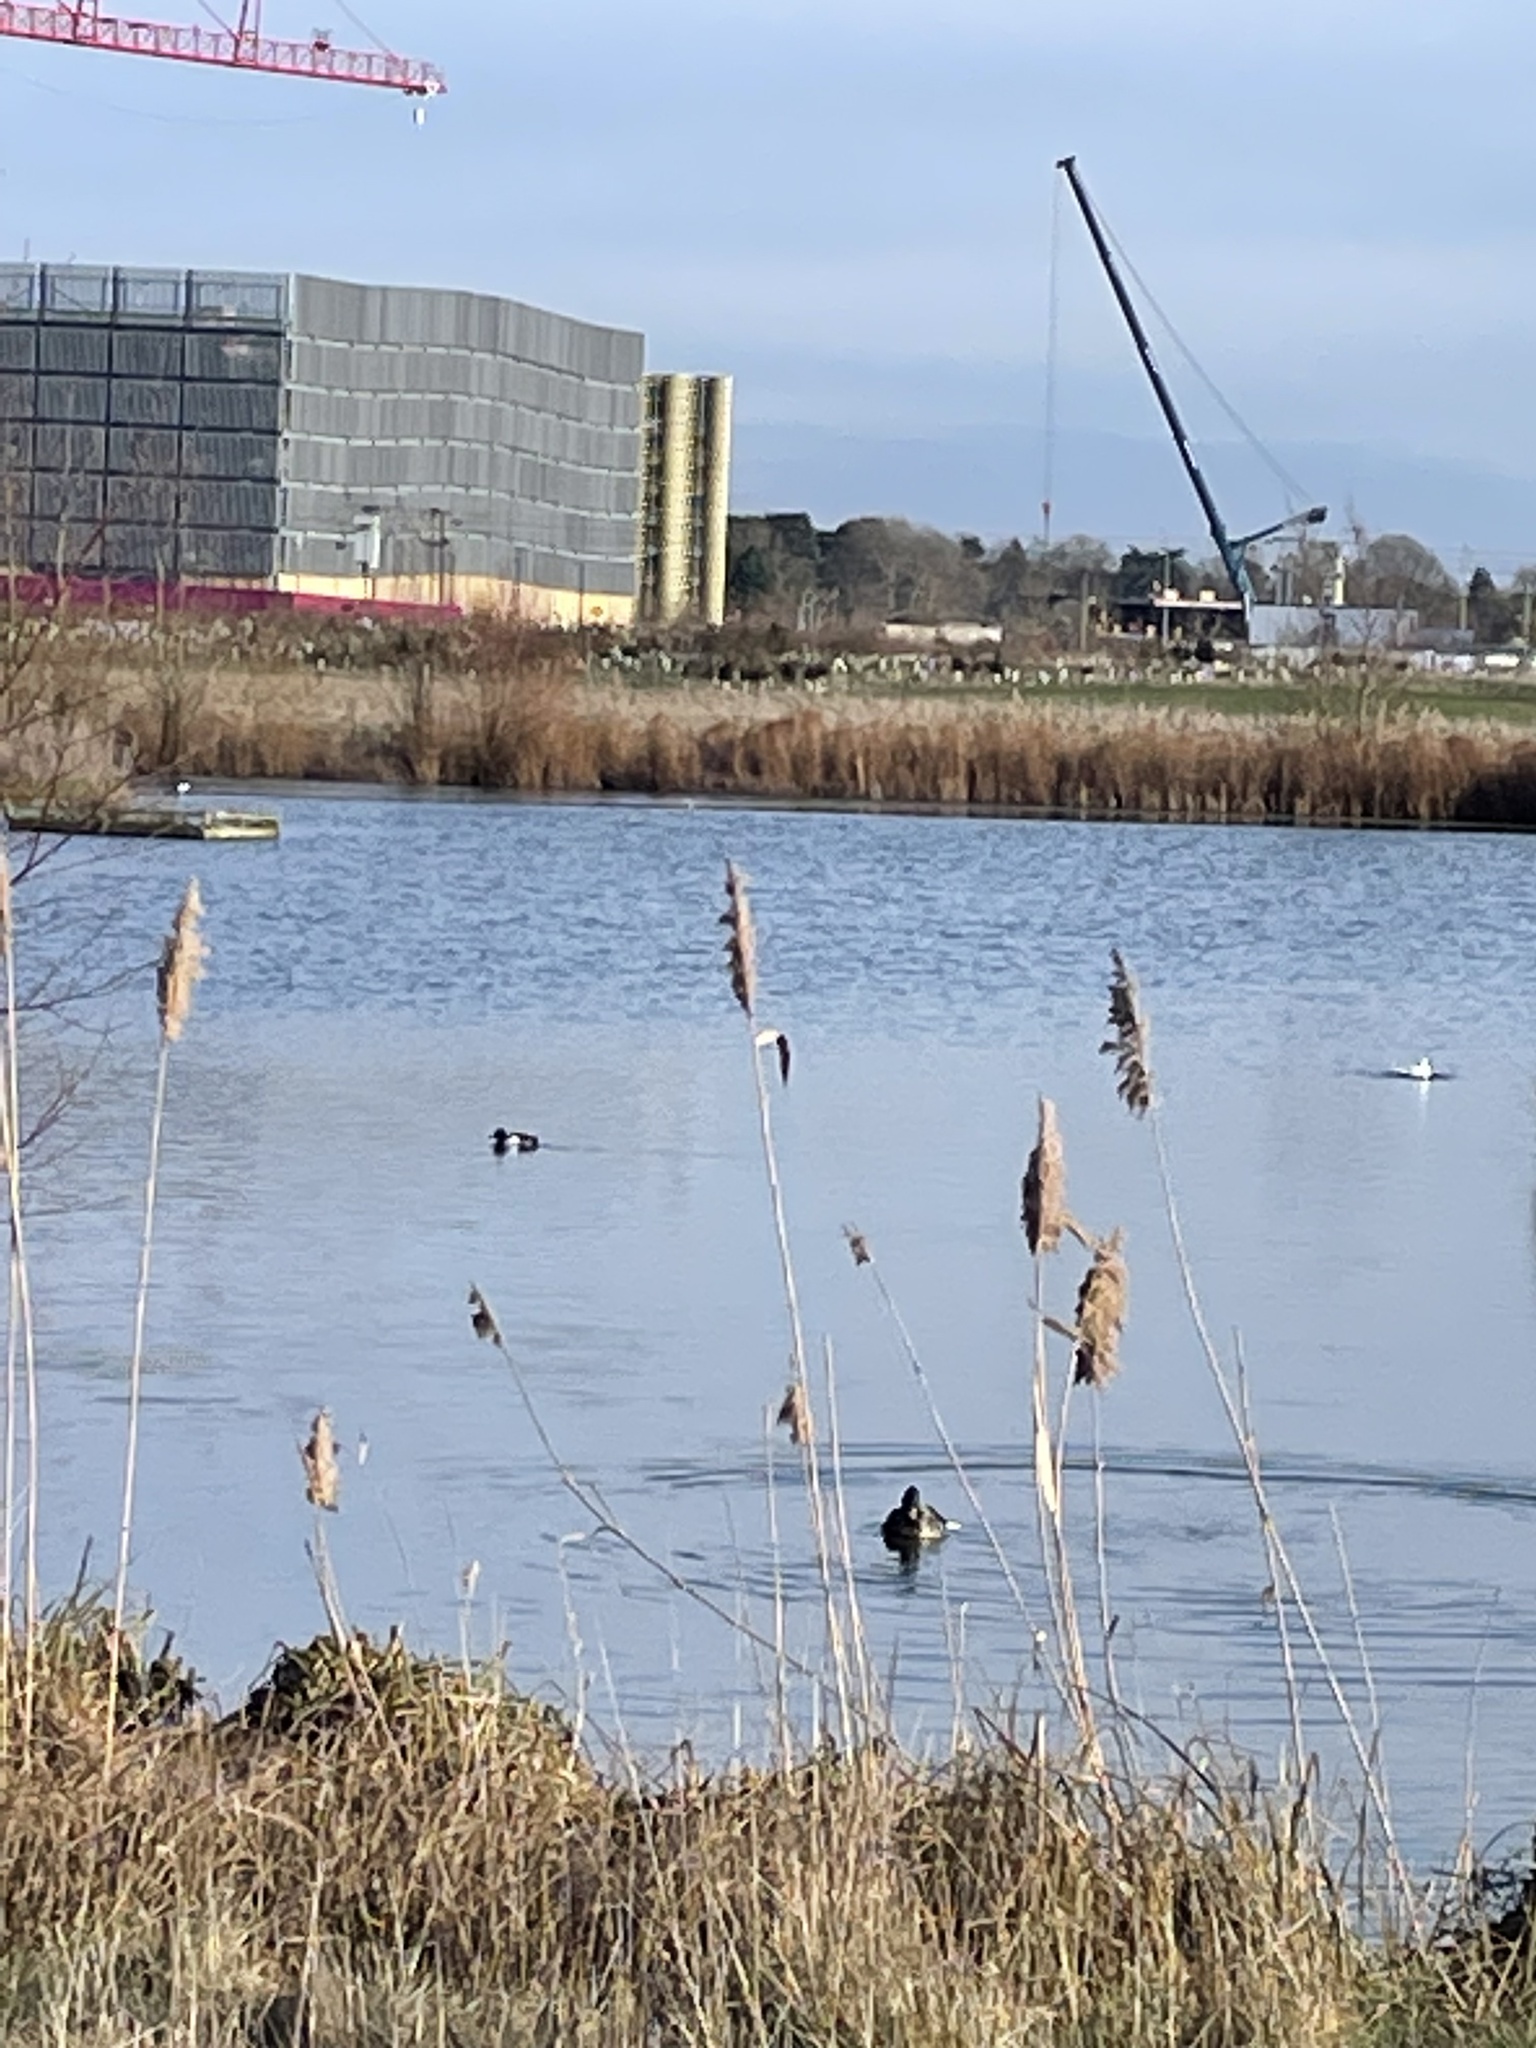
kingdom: Plantae
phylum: Tracheophyta
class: Liliopsida
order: Poales
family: Poaceae
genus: Phragmites
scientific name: Phragmites australis
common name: Common reed
